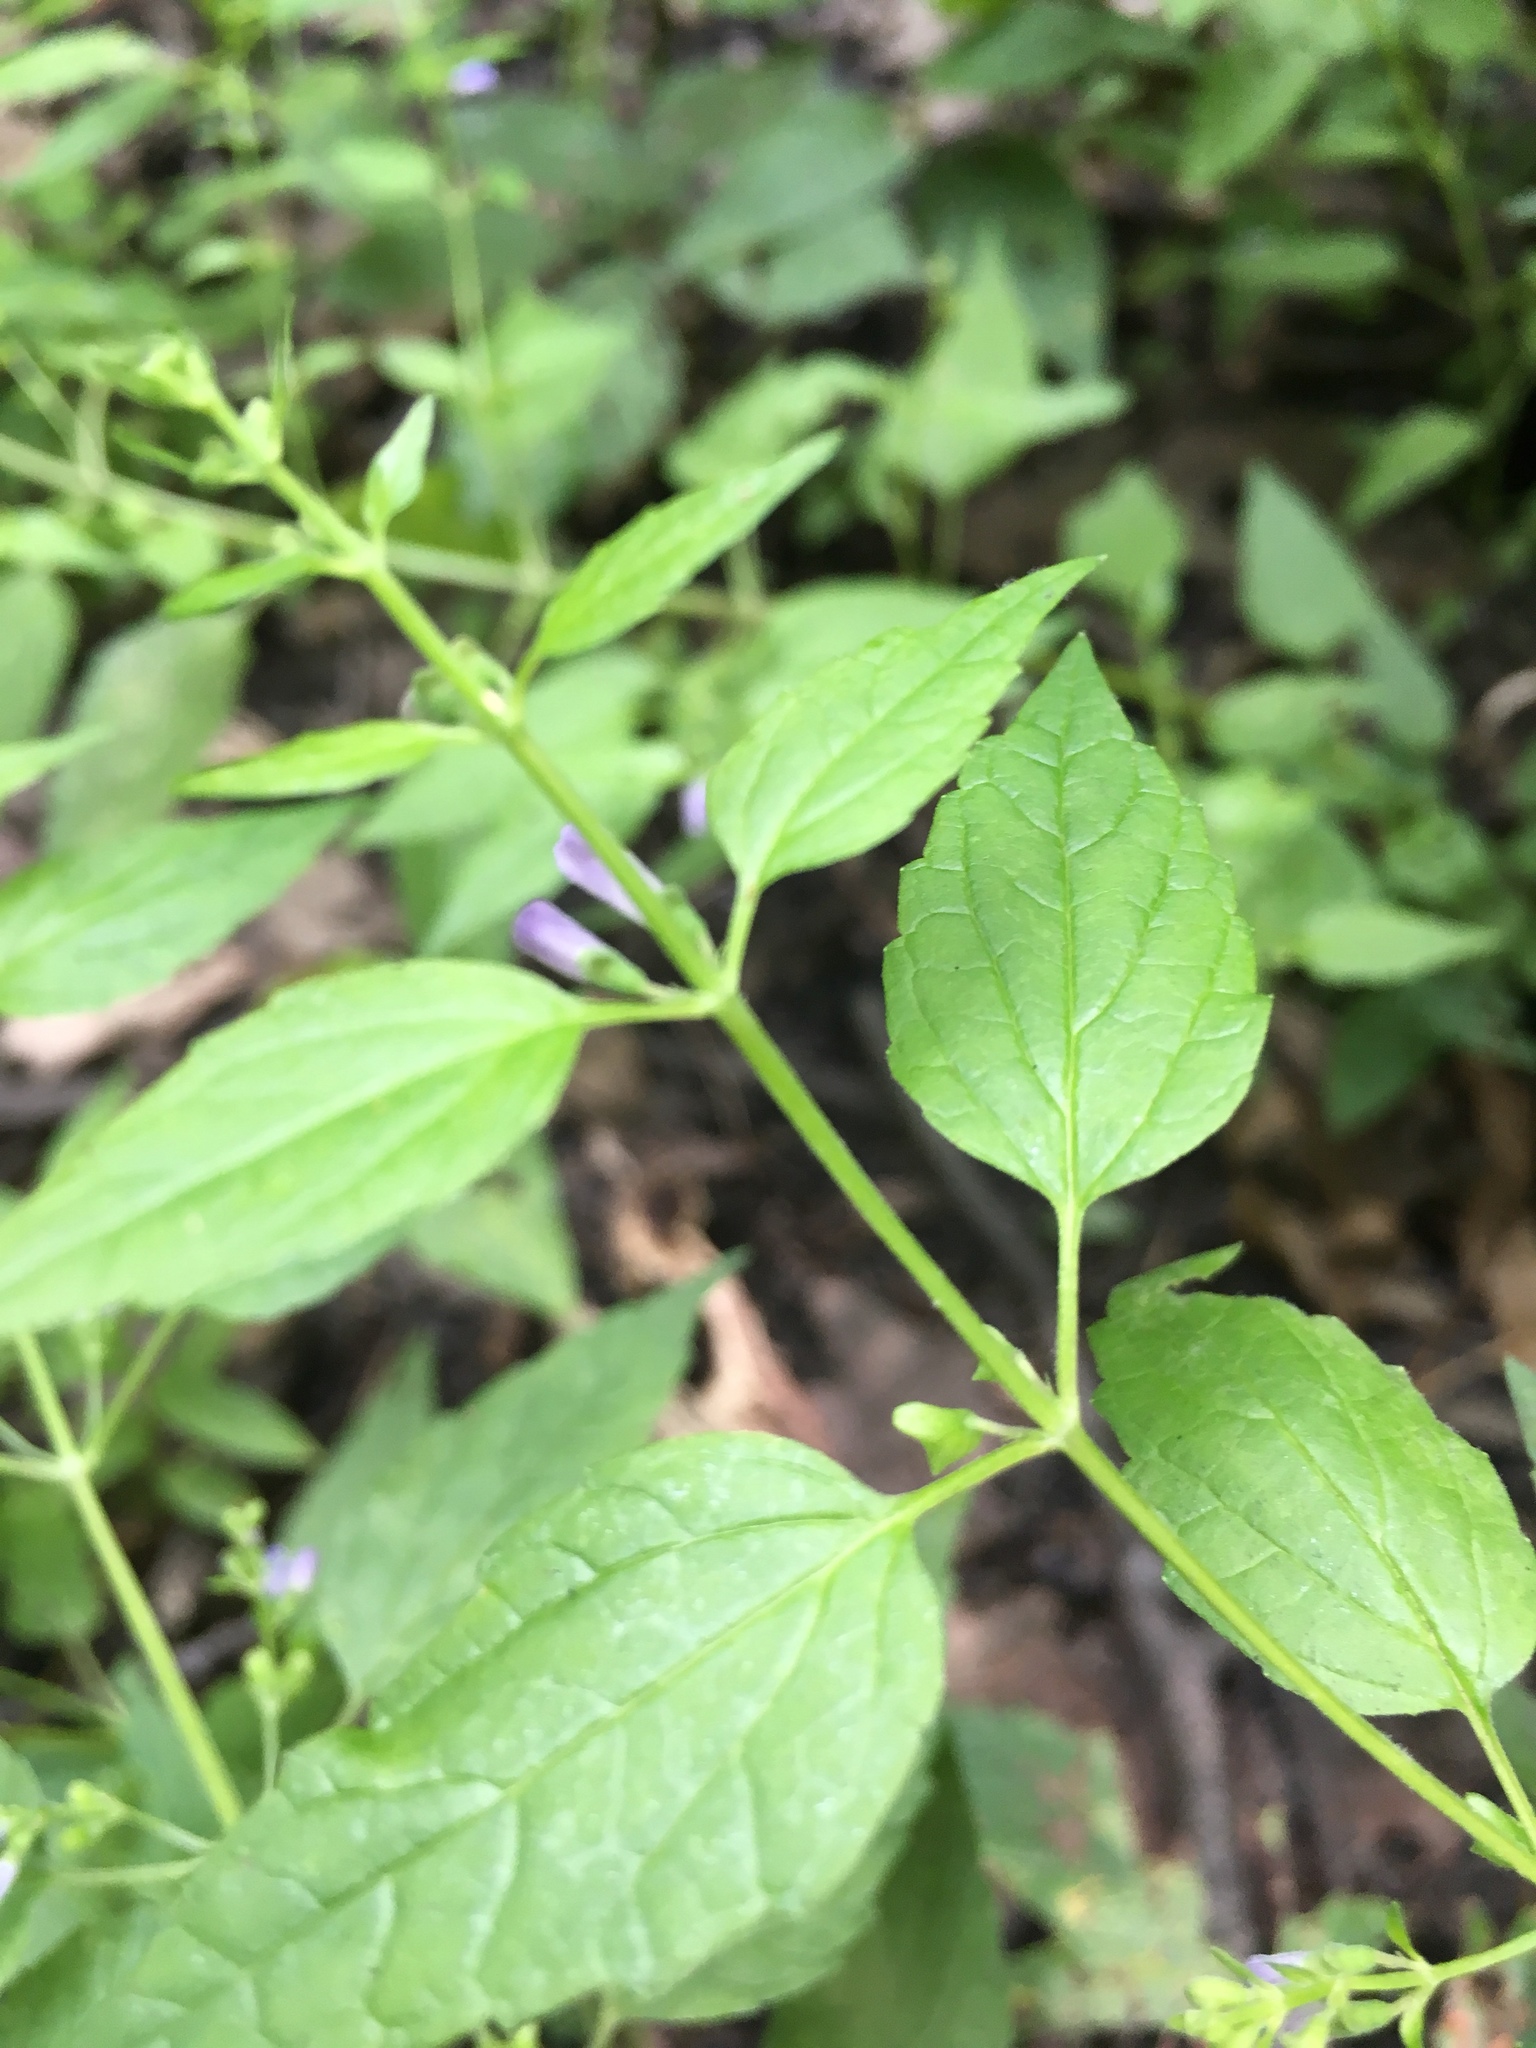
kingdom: Plantae
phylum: Tracheophyta
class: Magnoliopsida
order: Lamiales
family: Lamiaceae
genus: Scutellaria
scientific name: Scutellaria lateriflora
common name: Blue skullcap
